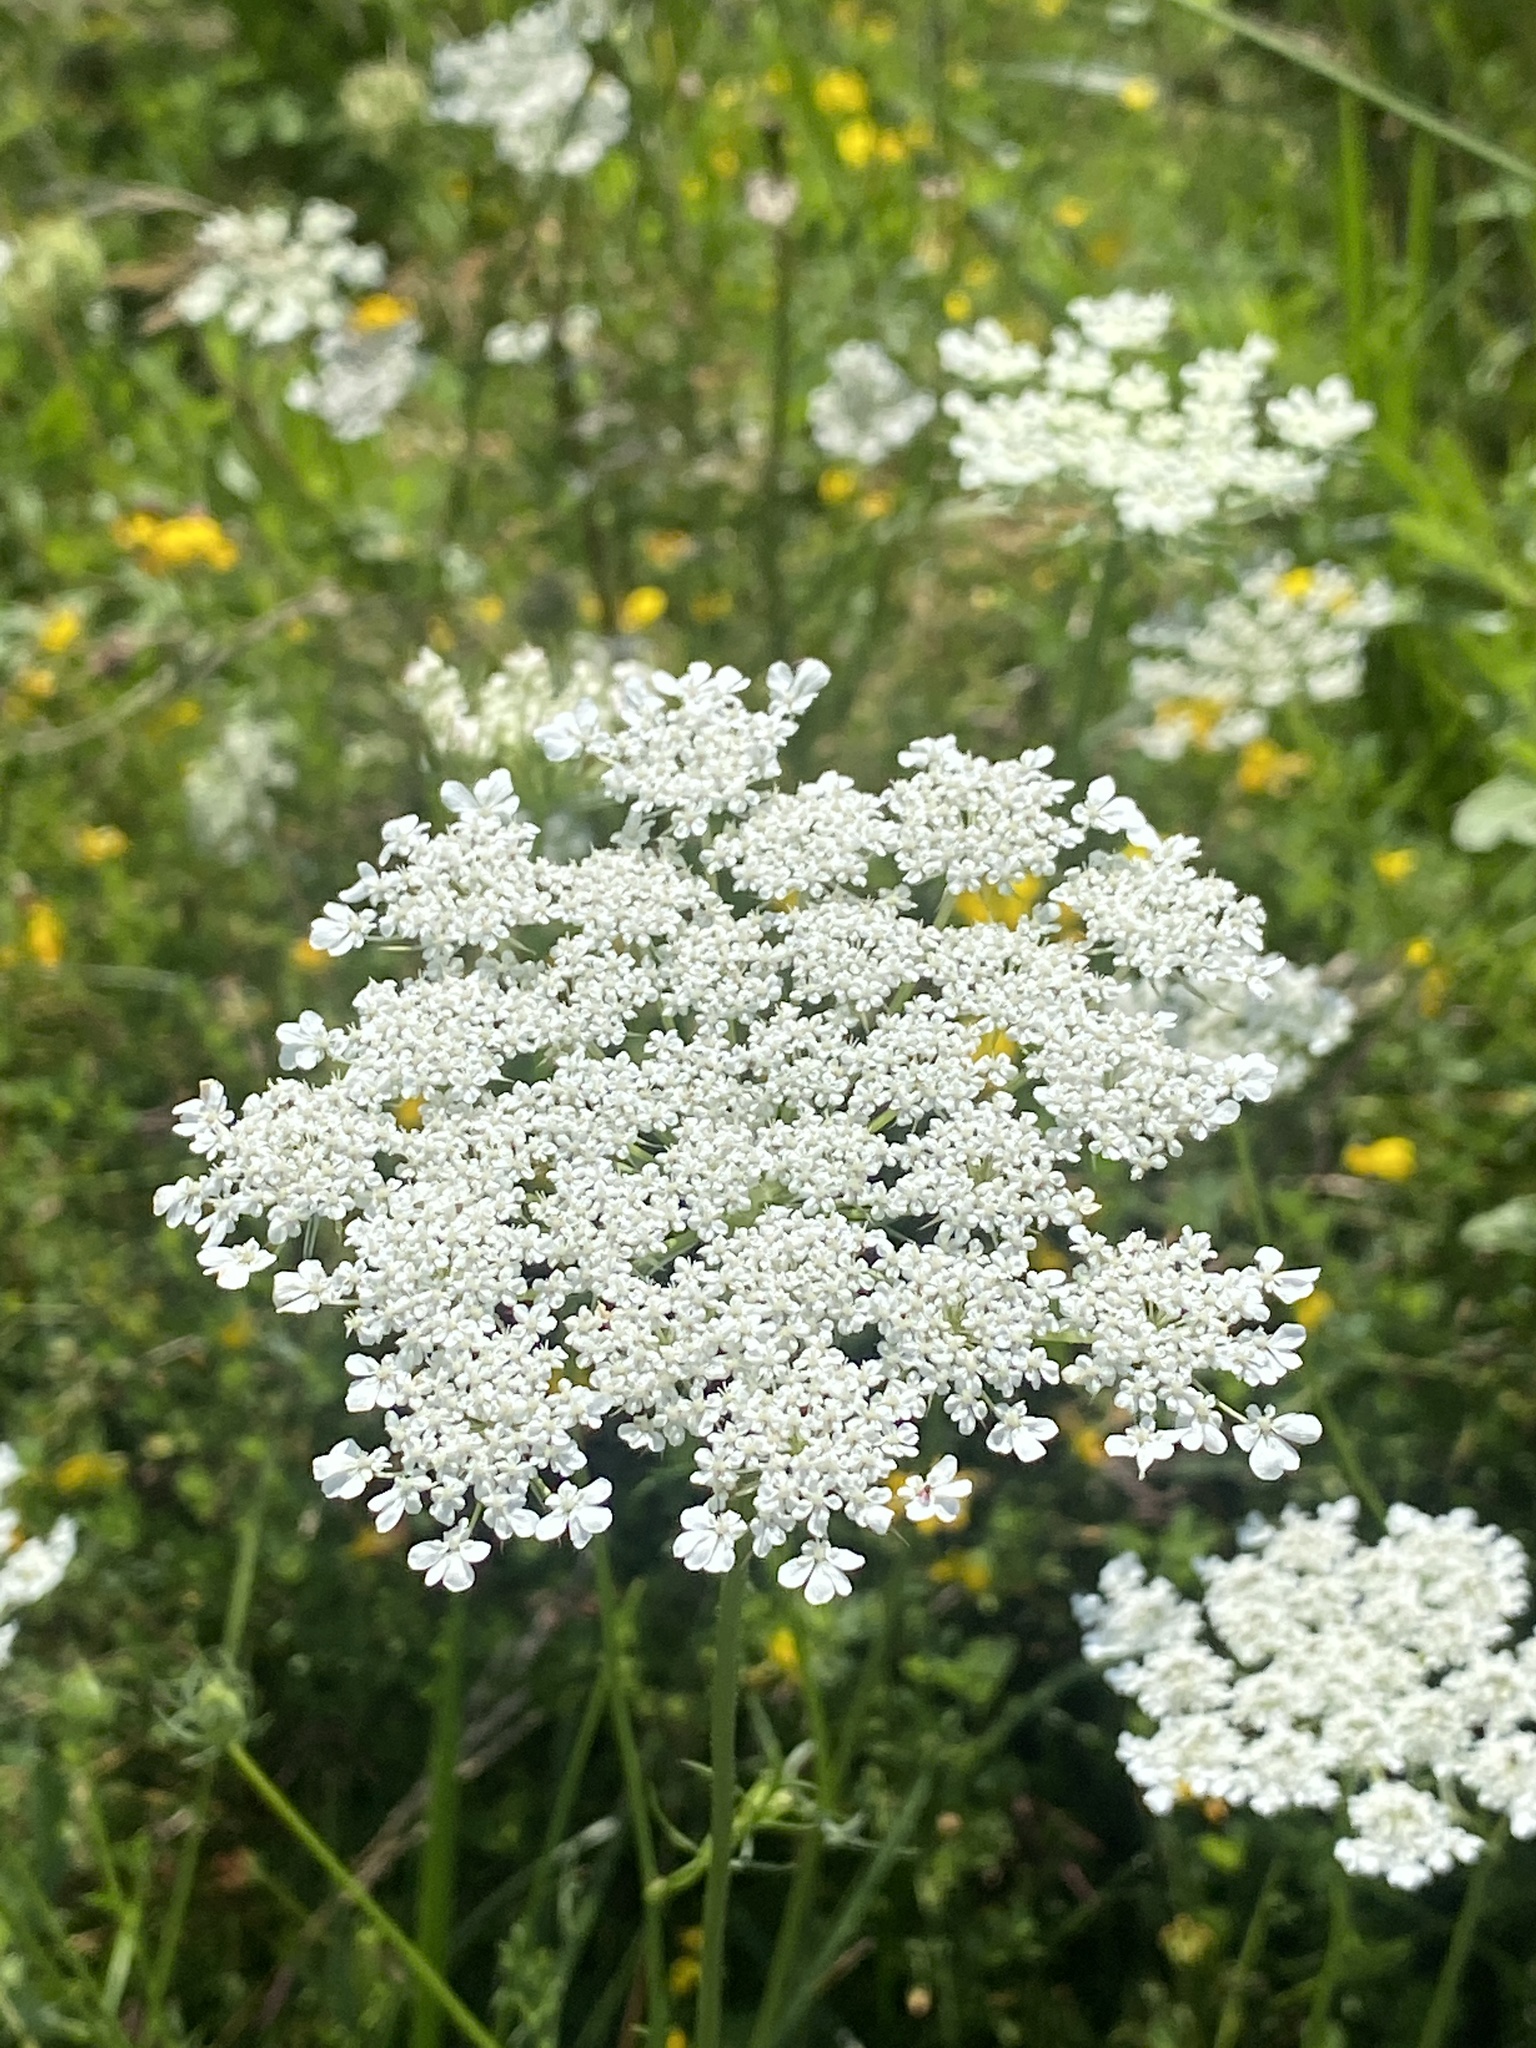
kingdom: Plantae
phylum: Tracheophyta
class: Magnoliopsida
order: Apiales
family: Apiaceae
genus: Daucus
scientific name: Daucus carota
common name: Wild carrot
